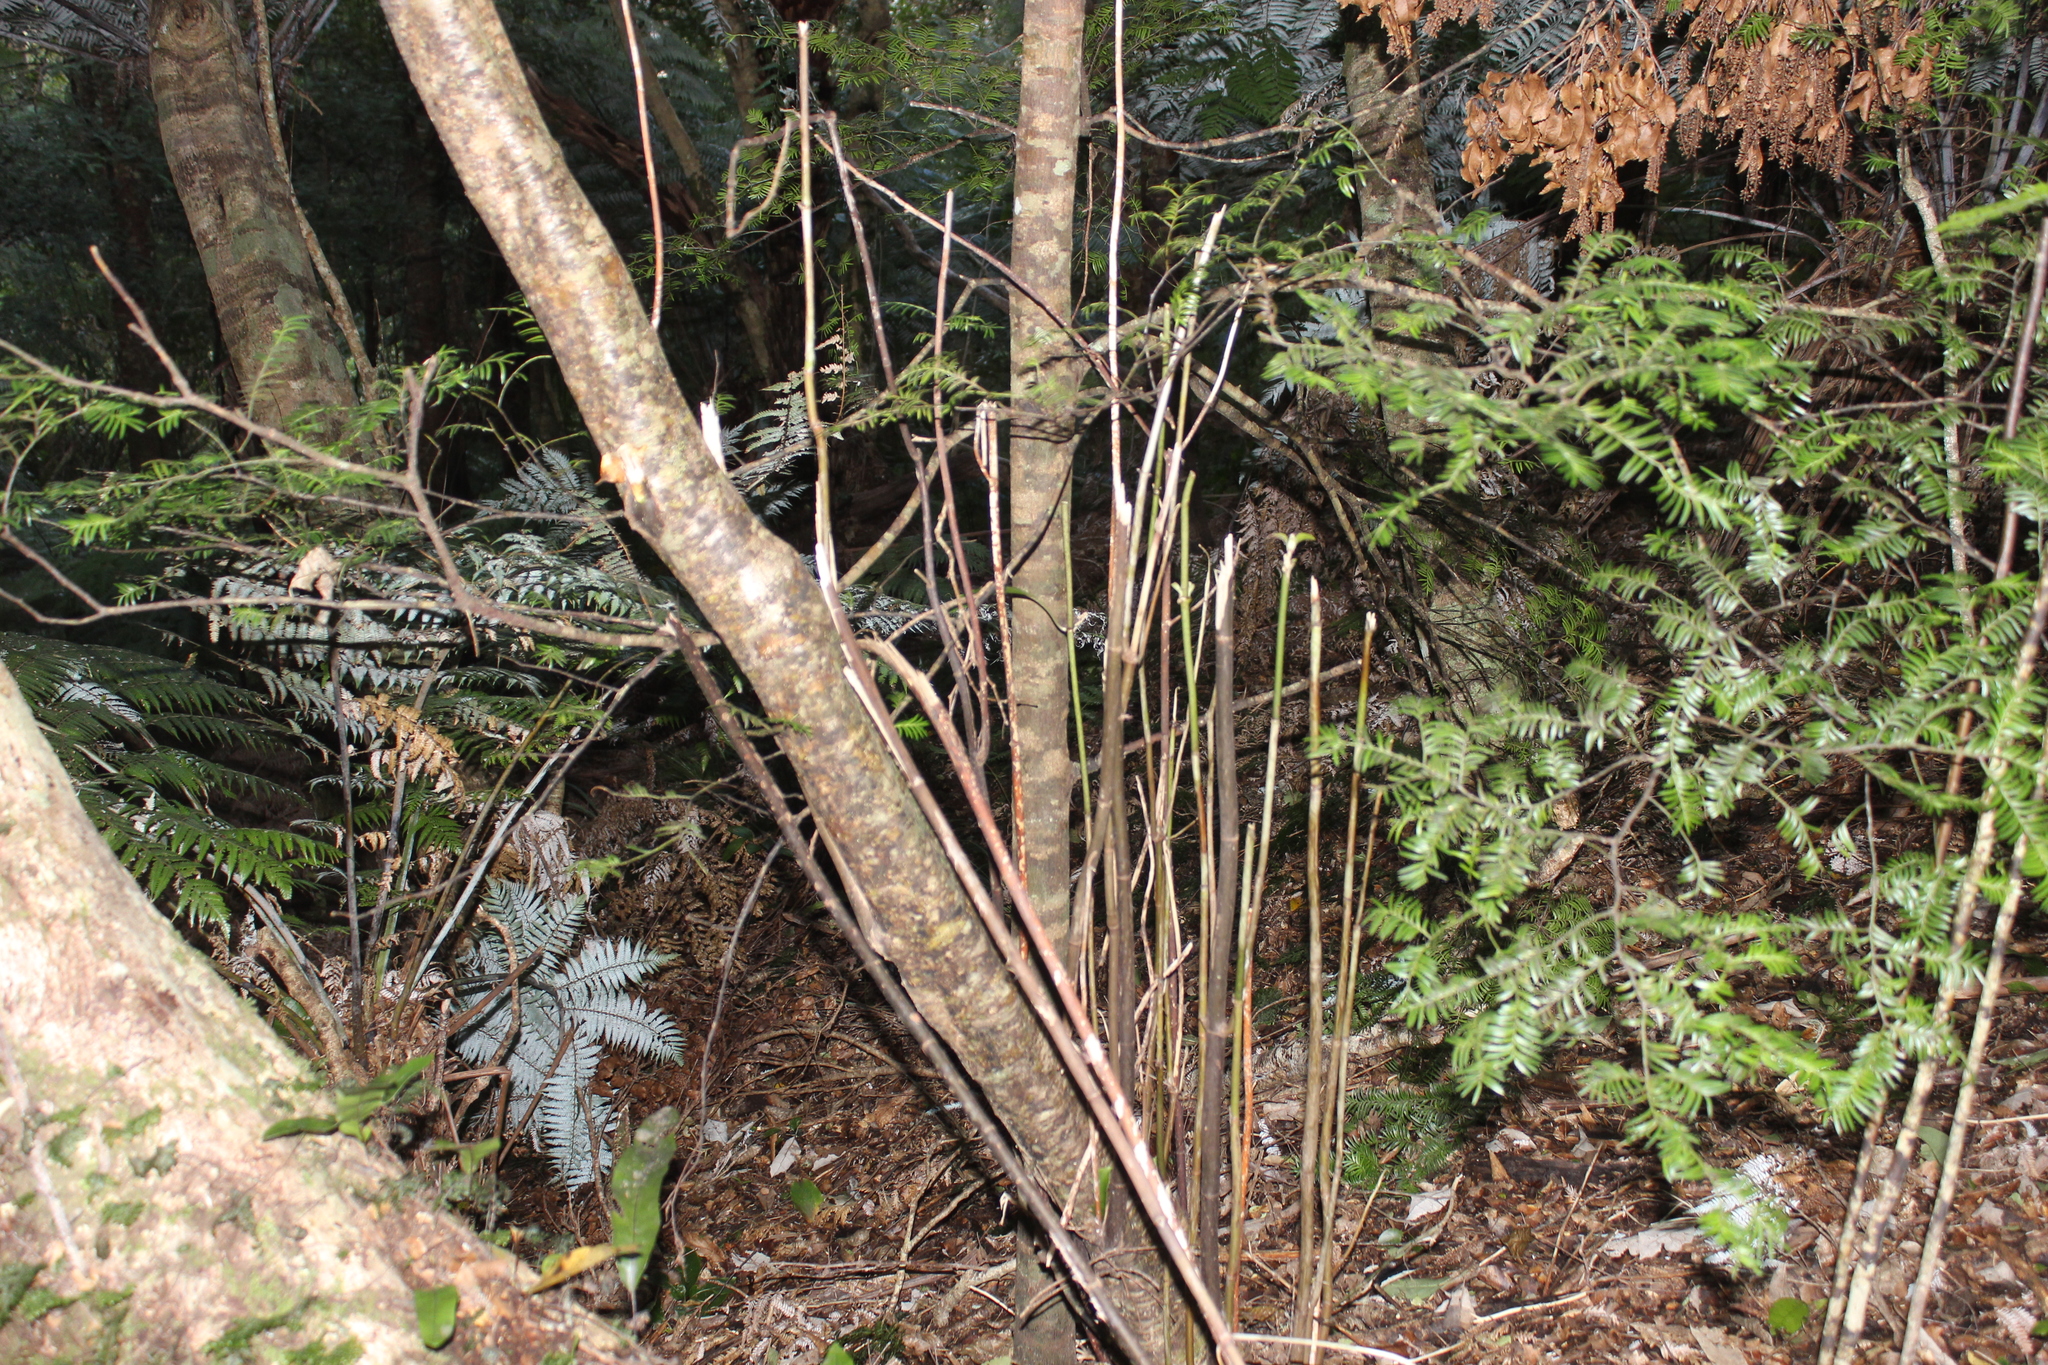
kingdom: Plantae
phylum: Tracheophyta
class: Magnoliopsida
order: Gentianales
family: Rubiaceae
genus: Coprosma
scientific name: Coprosma autumnalis
